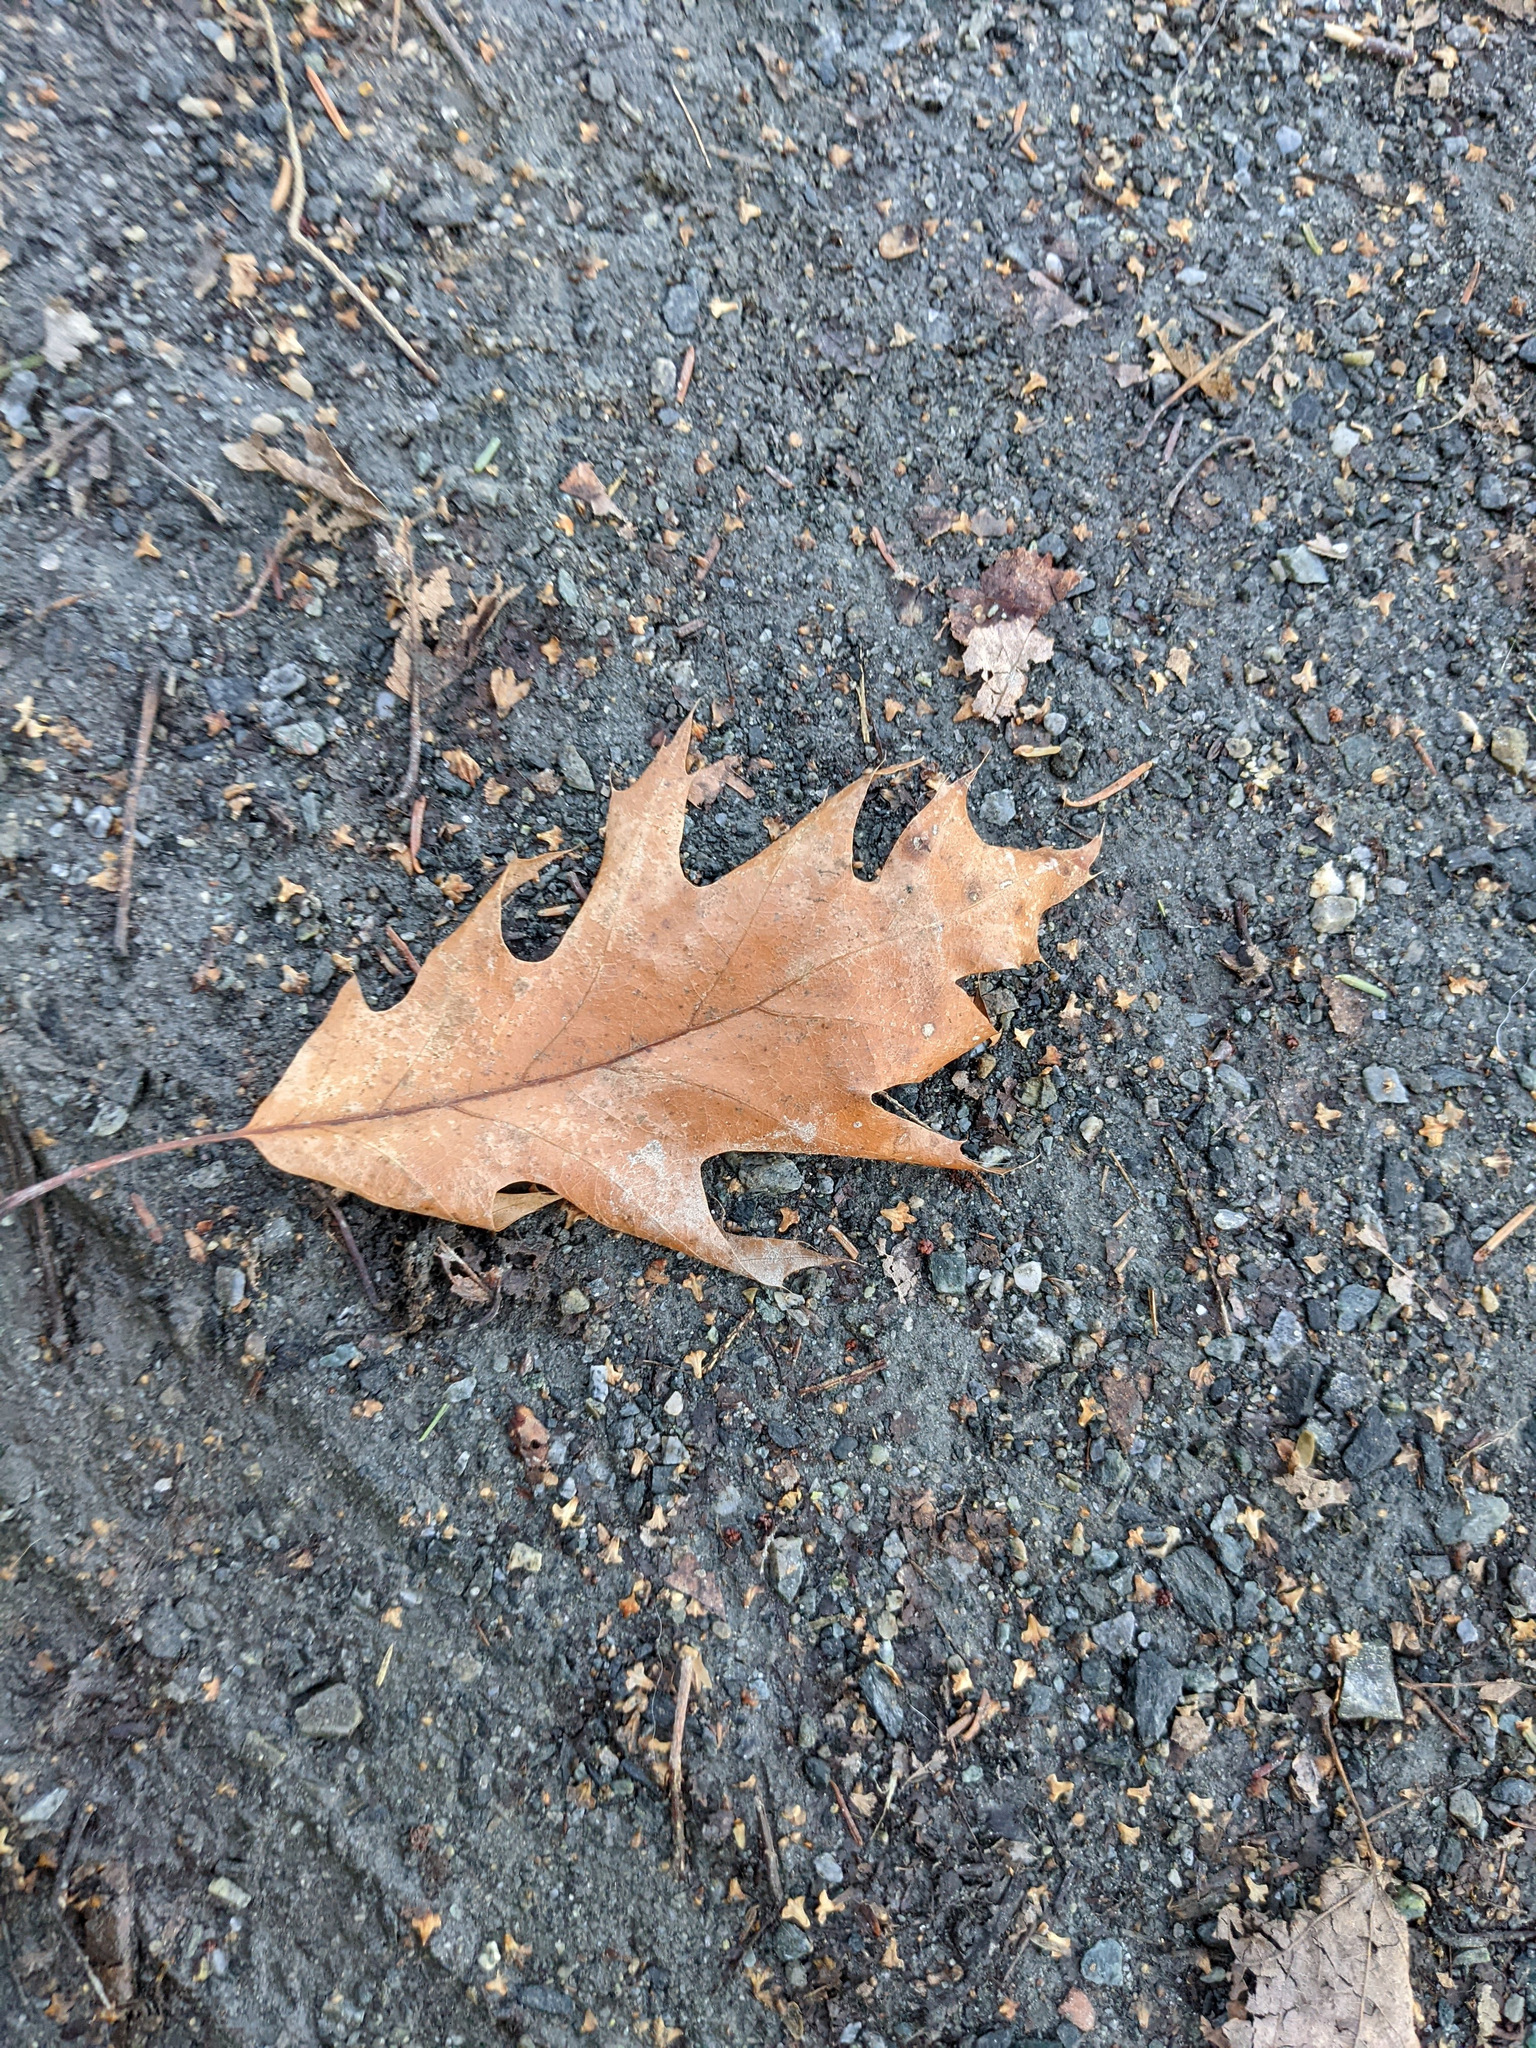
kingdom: Plantae
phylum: Tracheophyta
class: Magnoliopsida
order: Fagales
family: Fagaceae
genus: Quercus
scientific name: Quercus rubra
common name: Red oak
